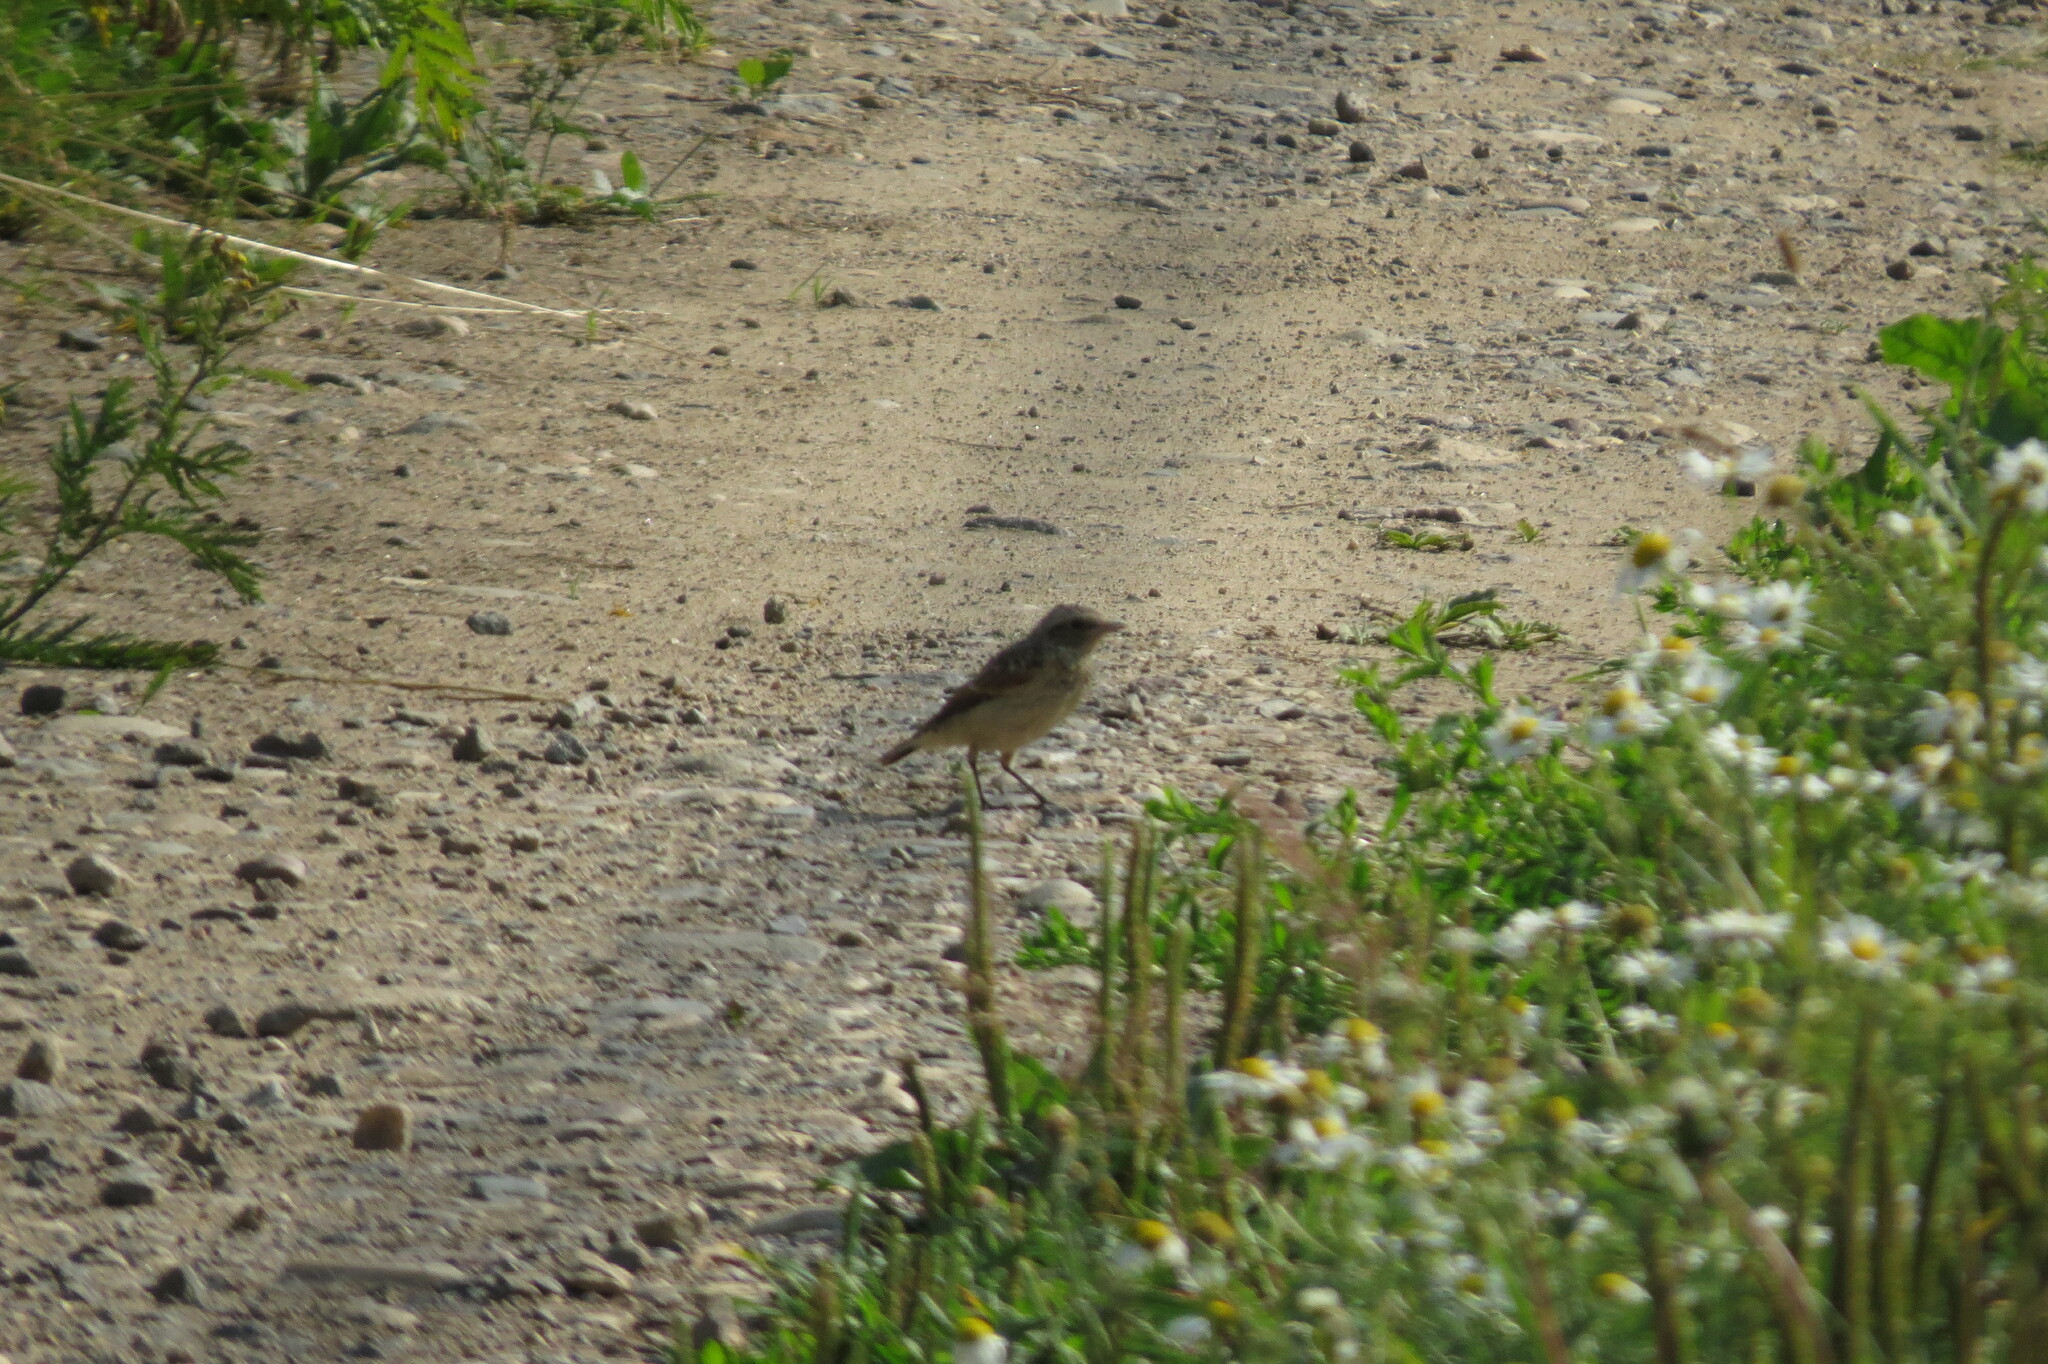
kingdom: Animalia
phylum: Chordata
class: Aves
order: Passeriformes
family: Muscicapidae
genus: Saxicola
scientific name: Saxicola rubetra
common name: Whinchat
